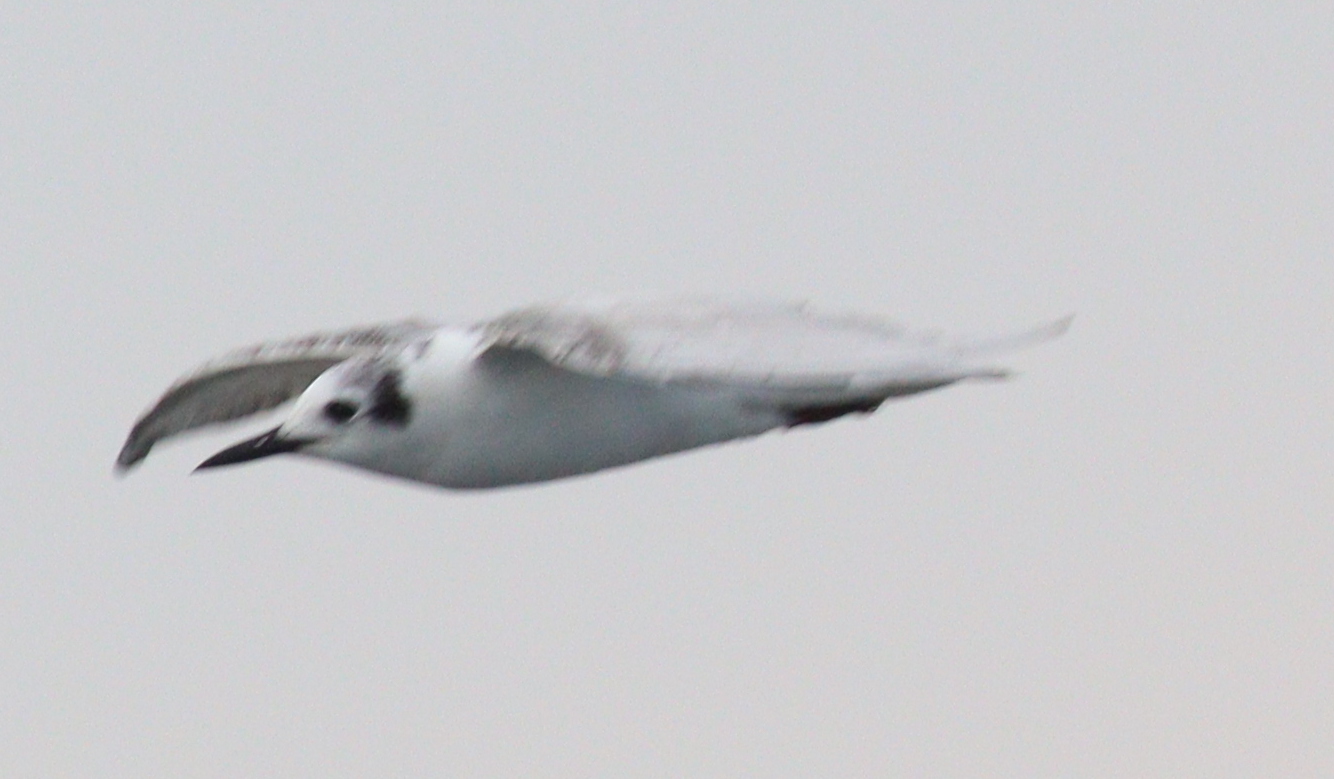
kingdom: Animalia
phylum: Chordata
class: Aves
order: Charadriiformes
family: Laridae
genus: Chlidonias
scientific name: Chlidonias leucopterus
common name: White-winged tern
